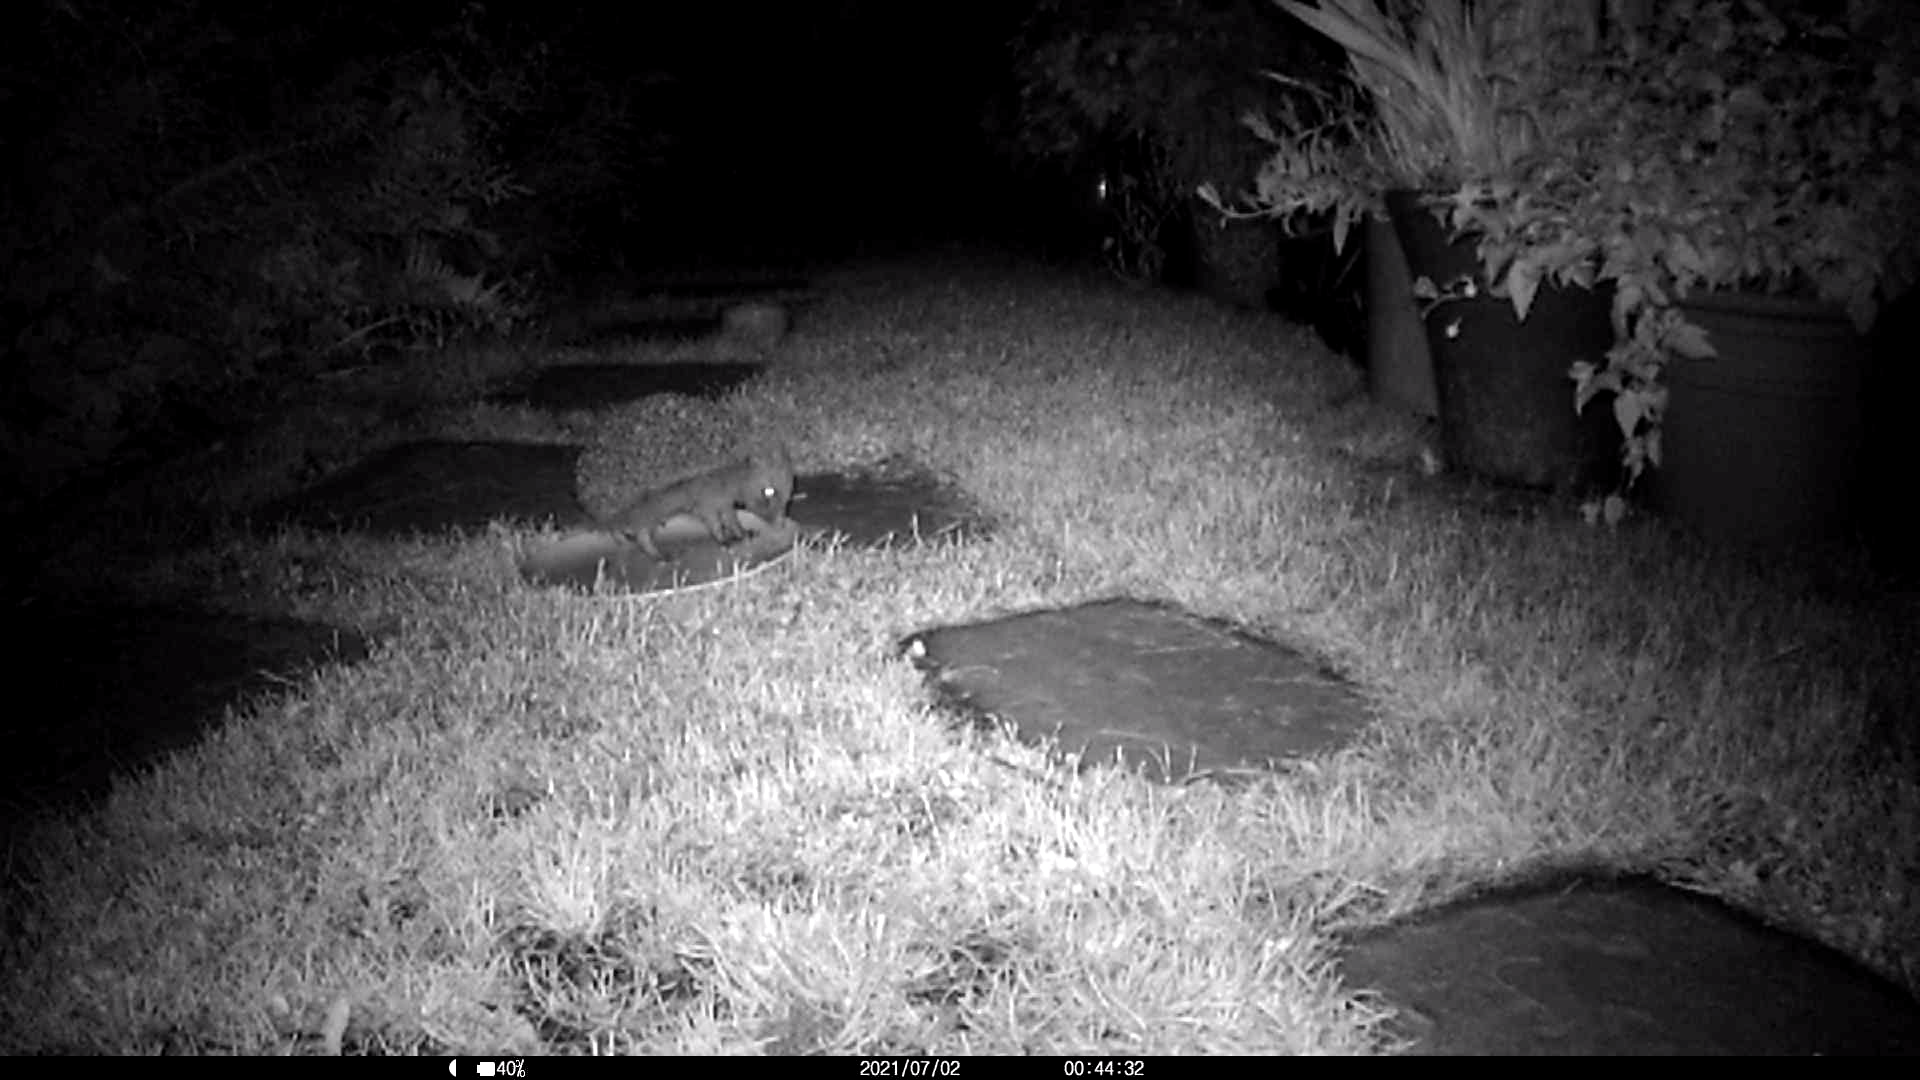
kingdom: Animalia
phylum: Chordata
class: Mammalia
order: Erinaceomorpha
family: Erinaceidae
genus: Erinaceus
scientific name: Erinaceus europaeus
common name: West european hedgehog
